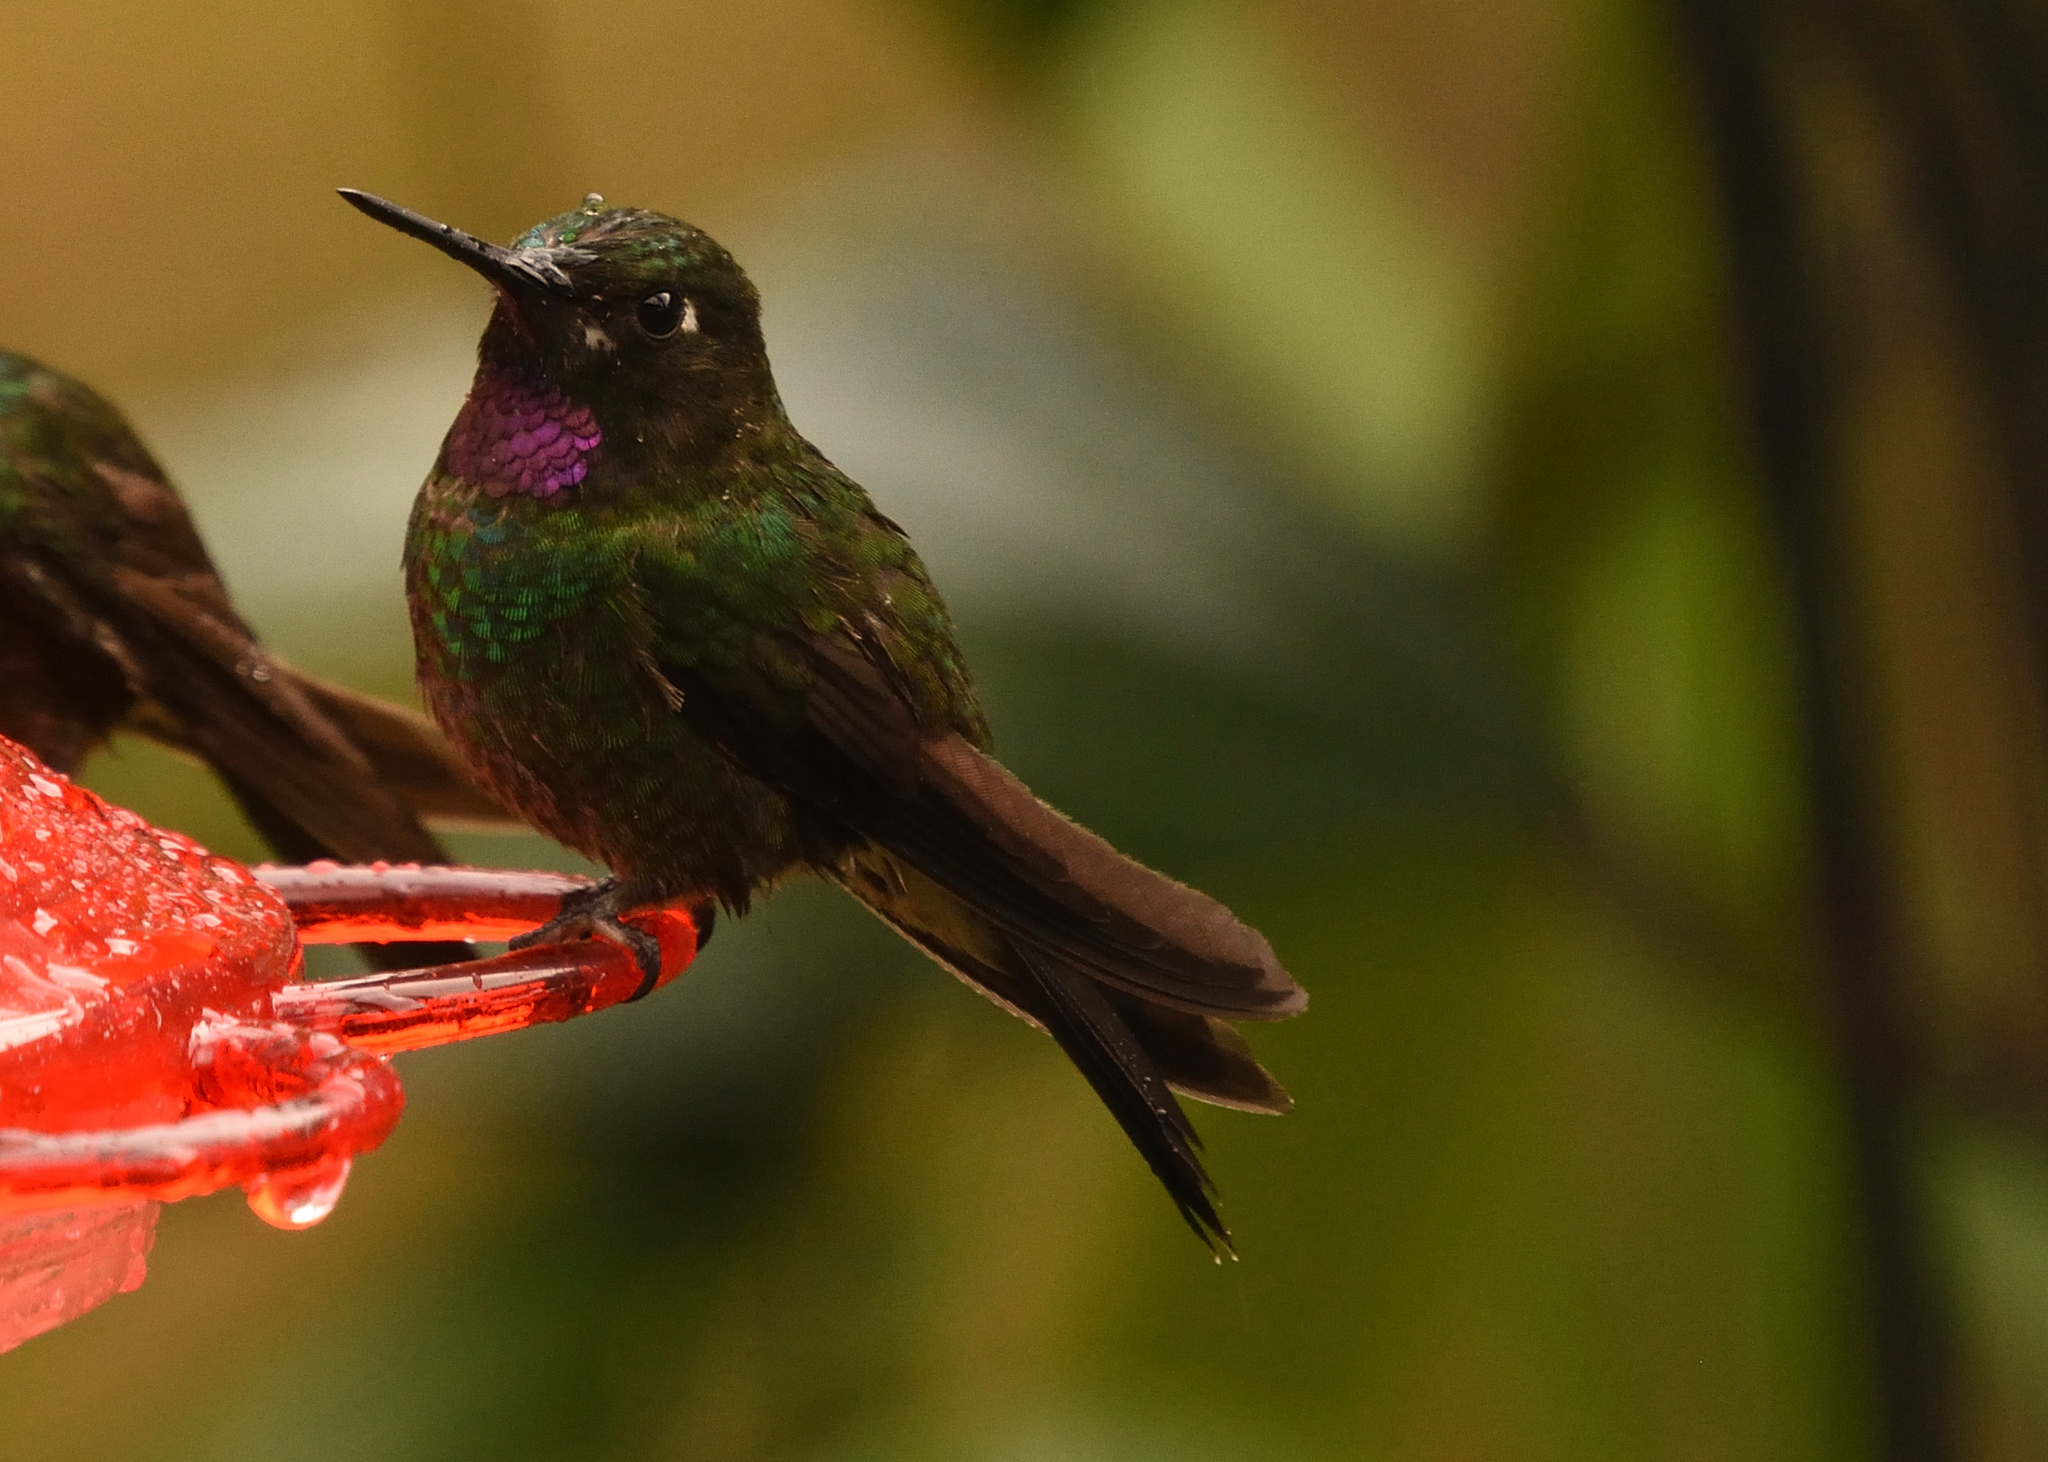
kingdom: Animalia
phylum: Chordata
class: Aves
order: Apodiformes
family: Trochilidae
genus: Heliangelus
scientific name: Heliangelus exortis
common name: Tourmaline sunangel
